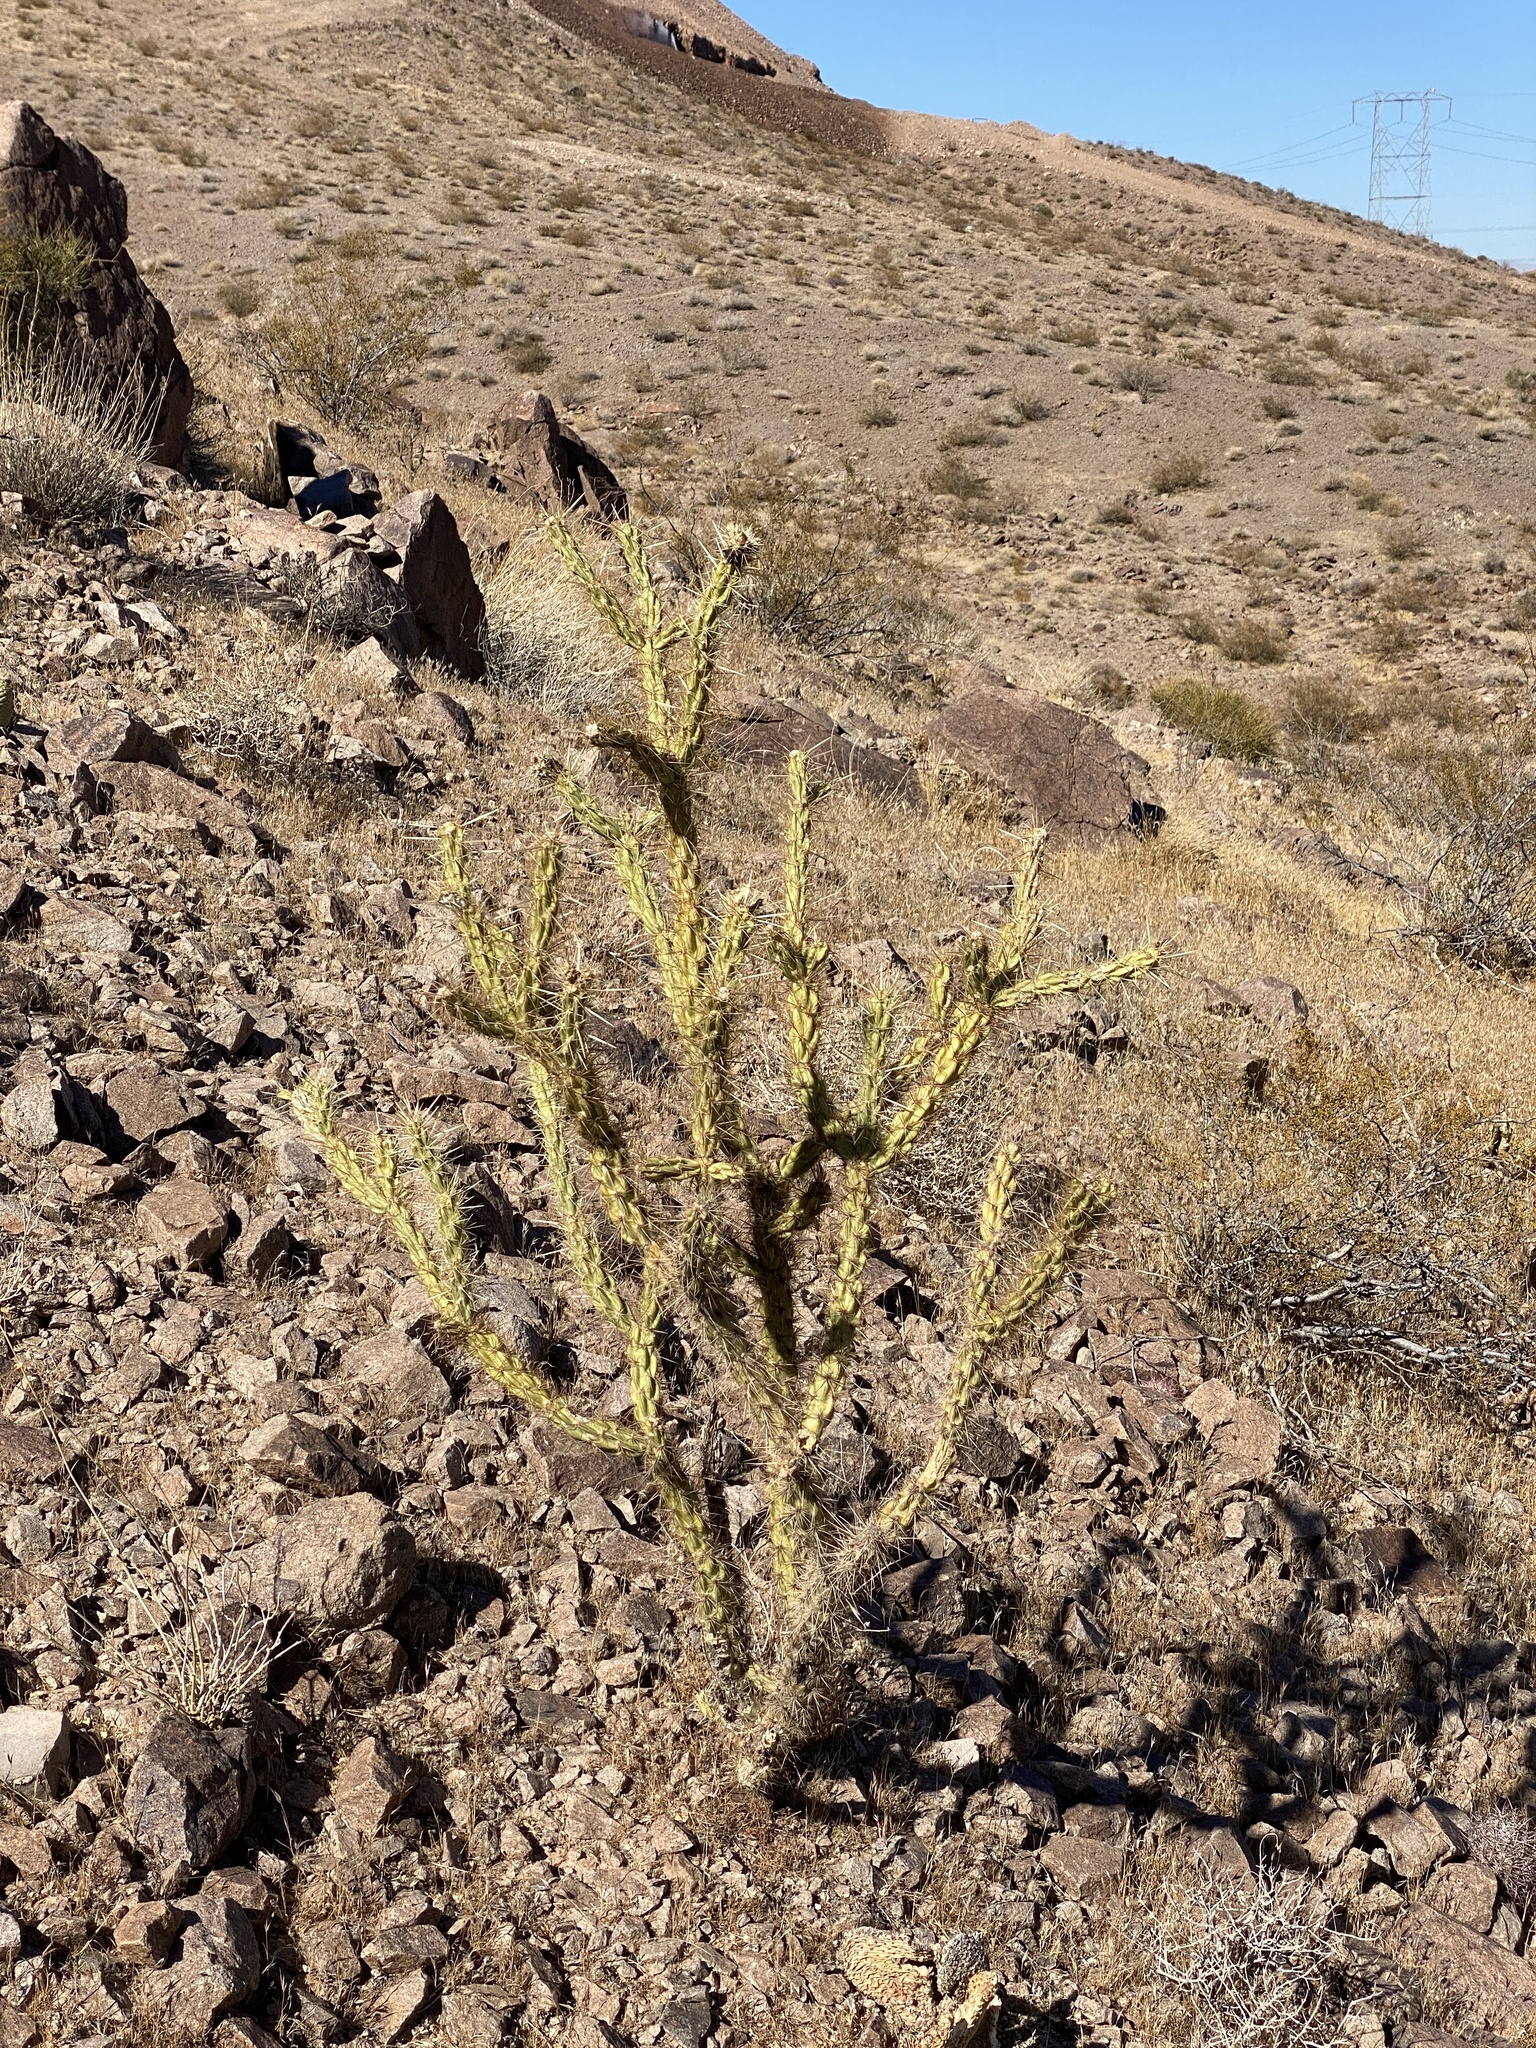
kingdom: Plantae
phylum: Tracheophyta
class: Magnoliopsida
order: Caryophyllales
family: Cactaceae
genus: Cylindropuntia
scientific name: Cylindropuntia acanthocarpa
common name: Buckhorn cholla
